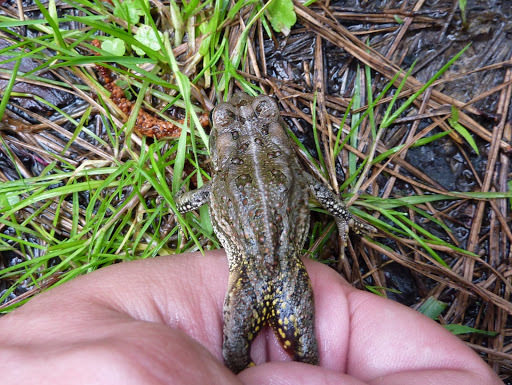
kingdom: Animalia
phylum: Chordata
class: Amphibia
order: Anura
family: Bufonidae
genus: Anaxyrus
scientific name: Anaxyrus fowleri
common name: Fowler's toad
